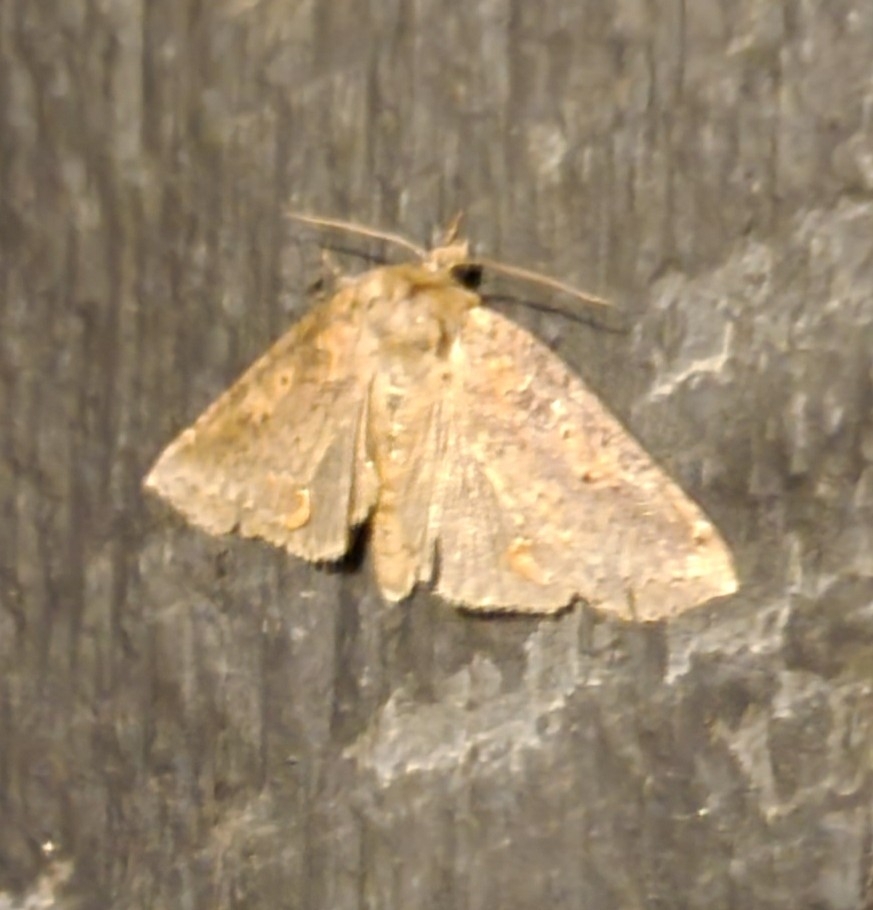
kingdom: Animalia
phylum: Arthropoda
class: Insecta
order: Lepidoptera
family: Drepanidae
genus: Pseudothyatira
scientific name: Pseudothyatira cymatophoroides
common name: Tufted thyatirid moth
